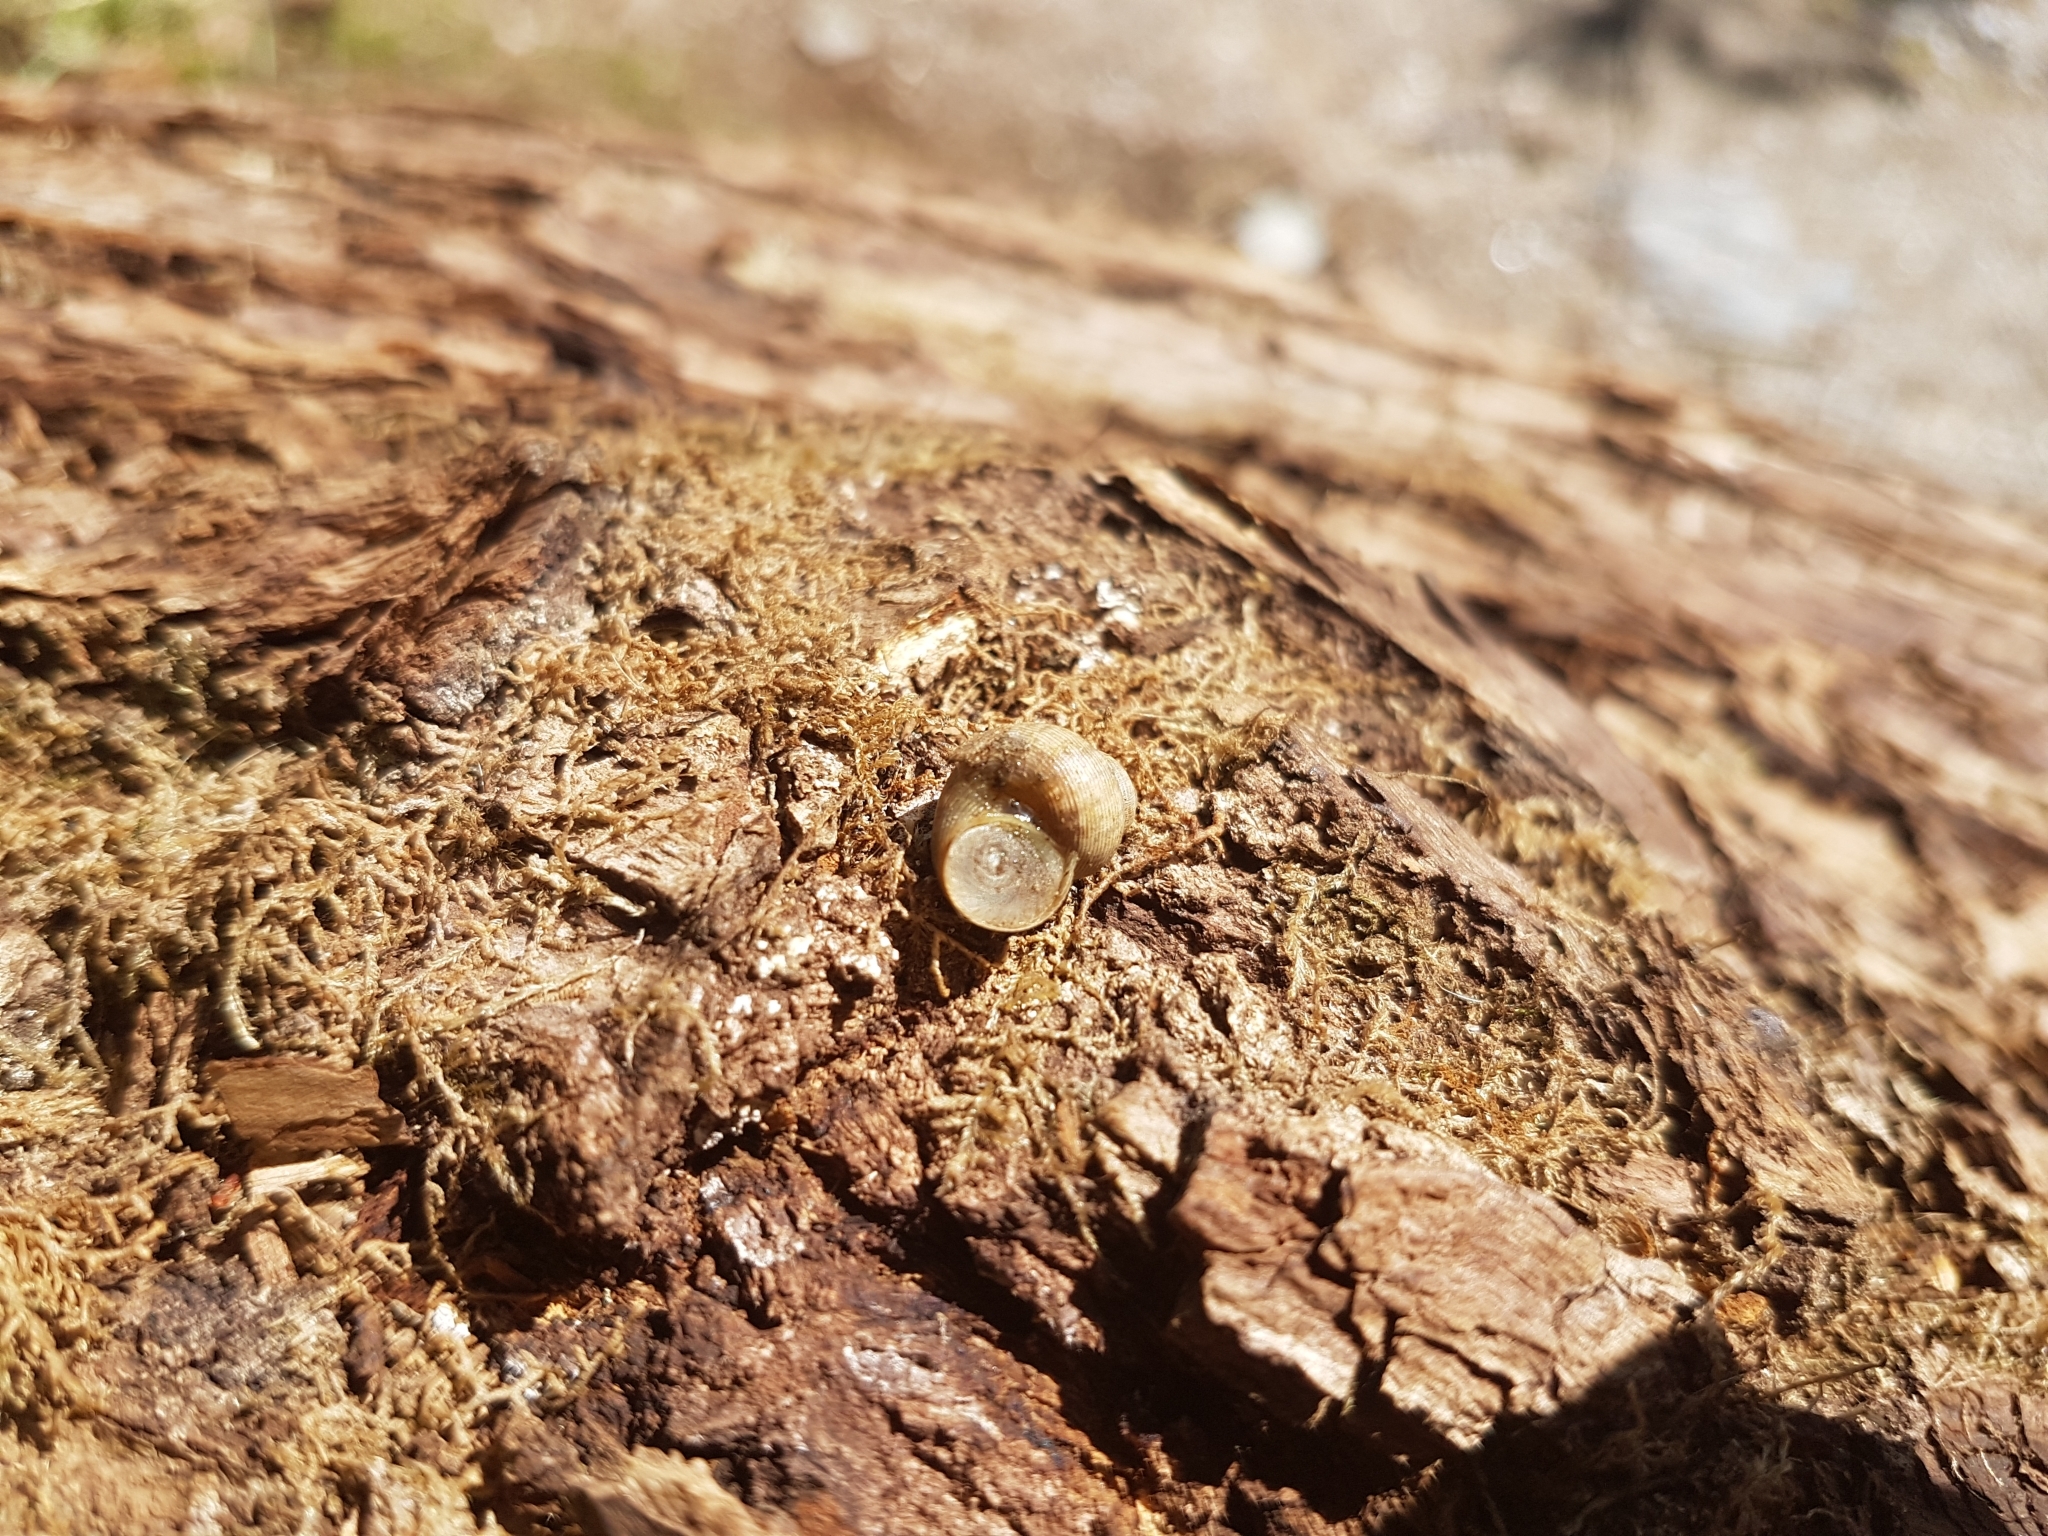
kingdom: Animalia
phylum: Mollusca
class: Gastropoda
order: Littorinimorpha
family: Pomatiidae
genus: Pomatias
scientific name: Pomatias elegans
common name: Red-mouthed snail
